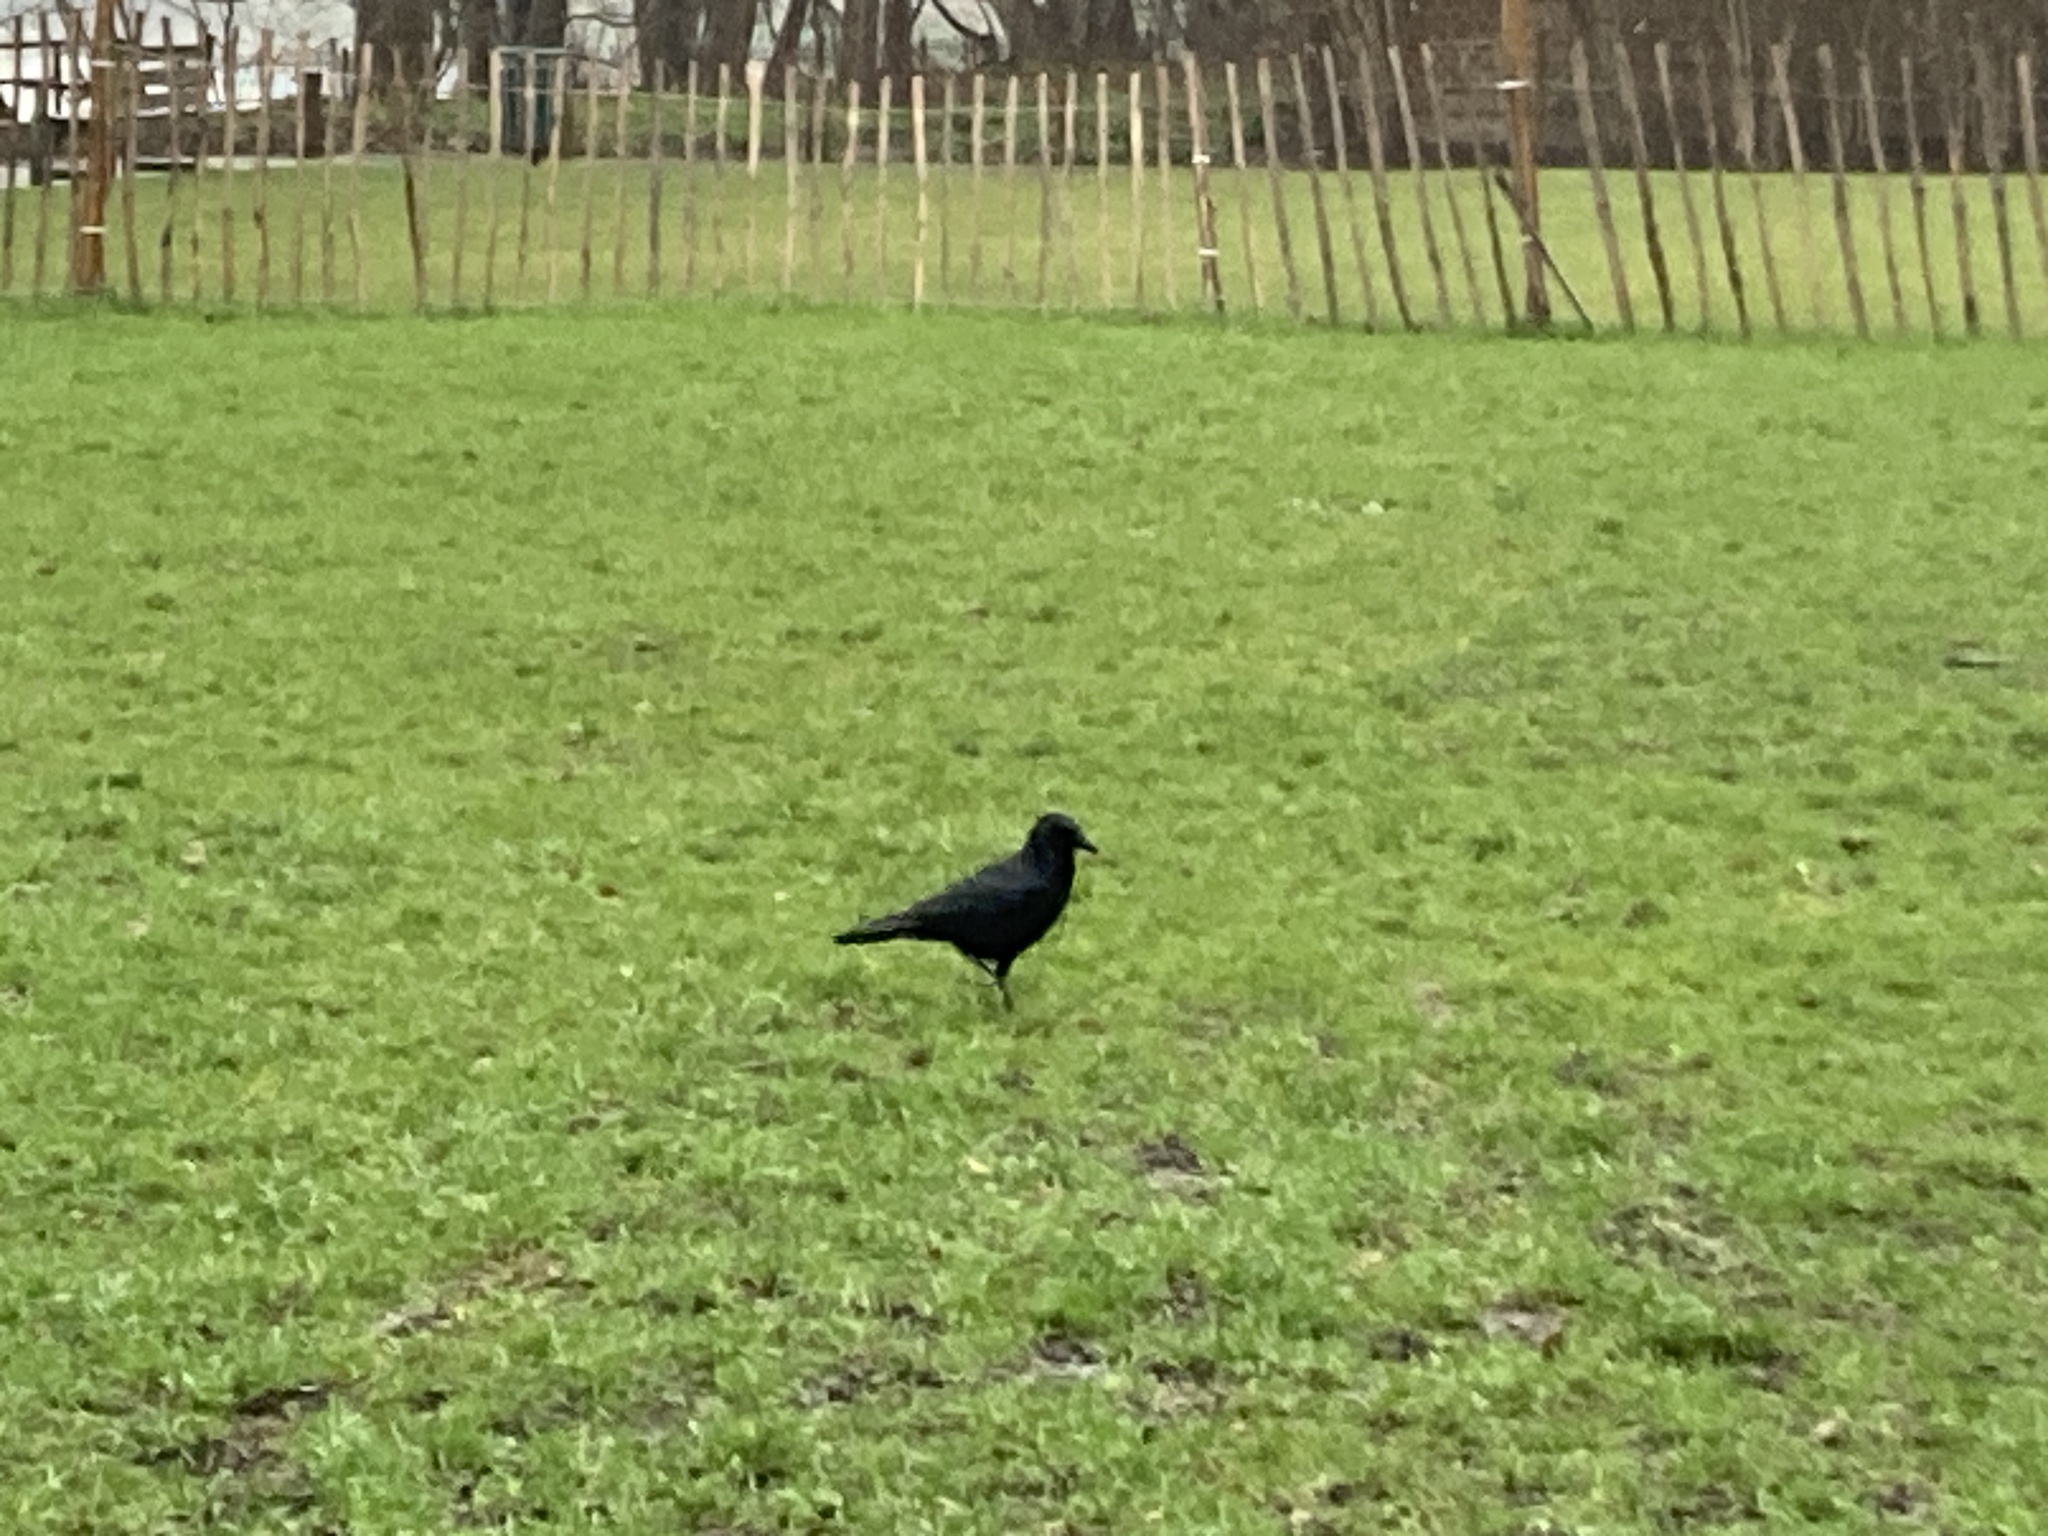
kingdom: Animalia
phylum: Chordata
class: Aves
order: Passeriformes
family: Corvidae
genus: Corvus
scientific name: Corvus corone
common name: Carrion crow
